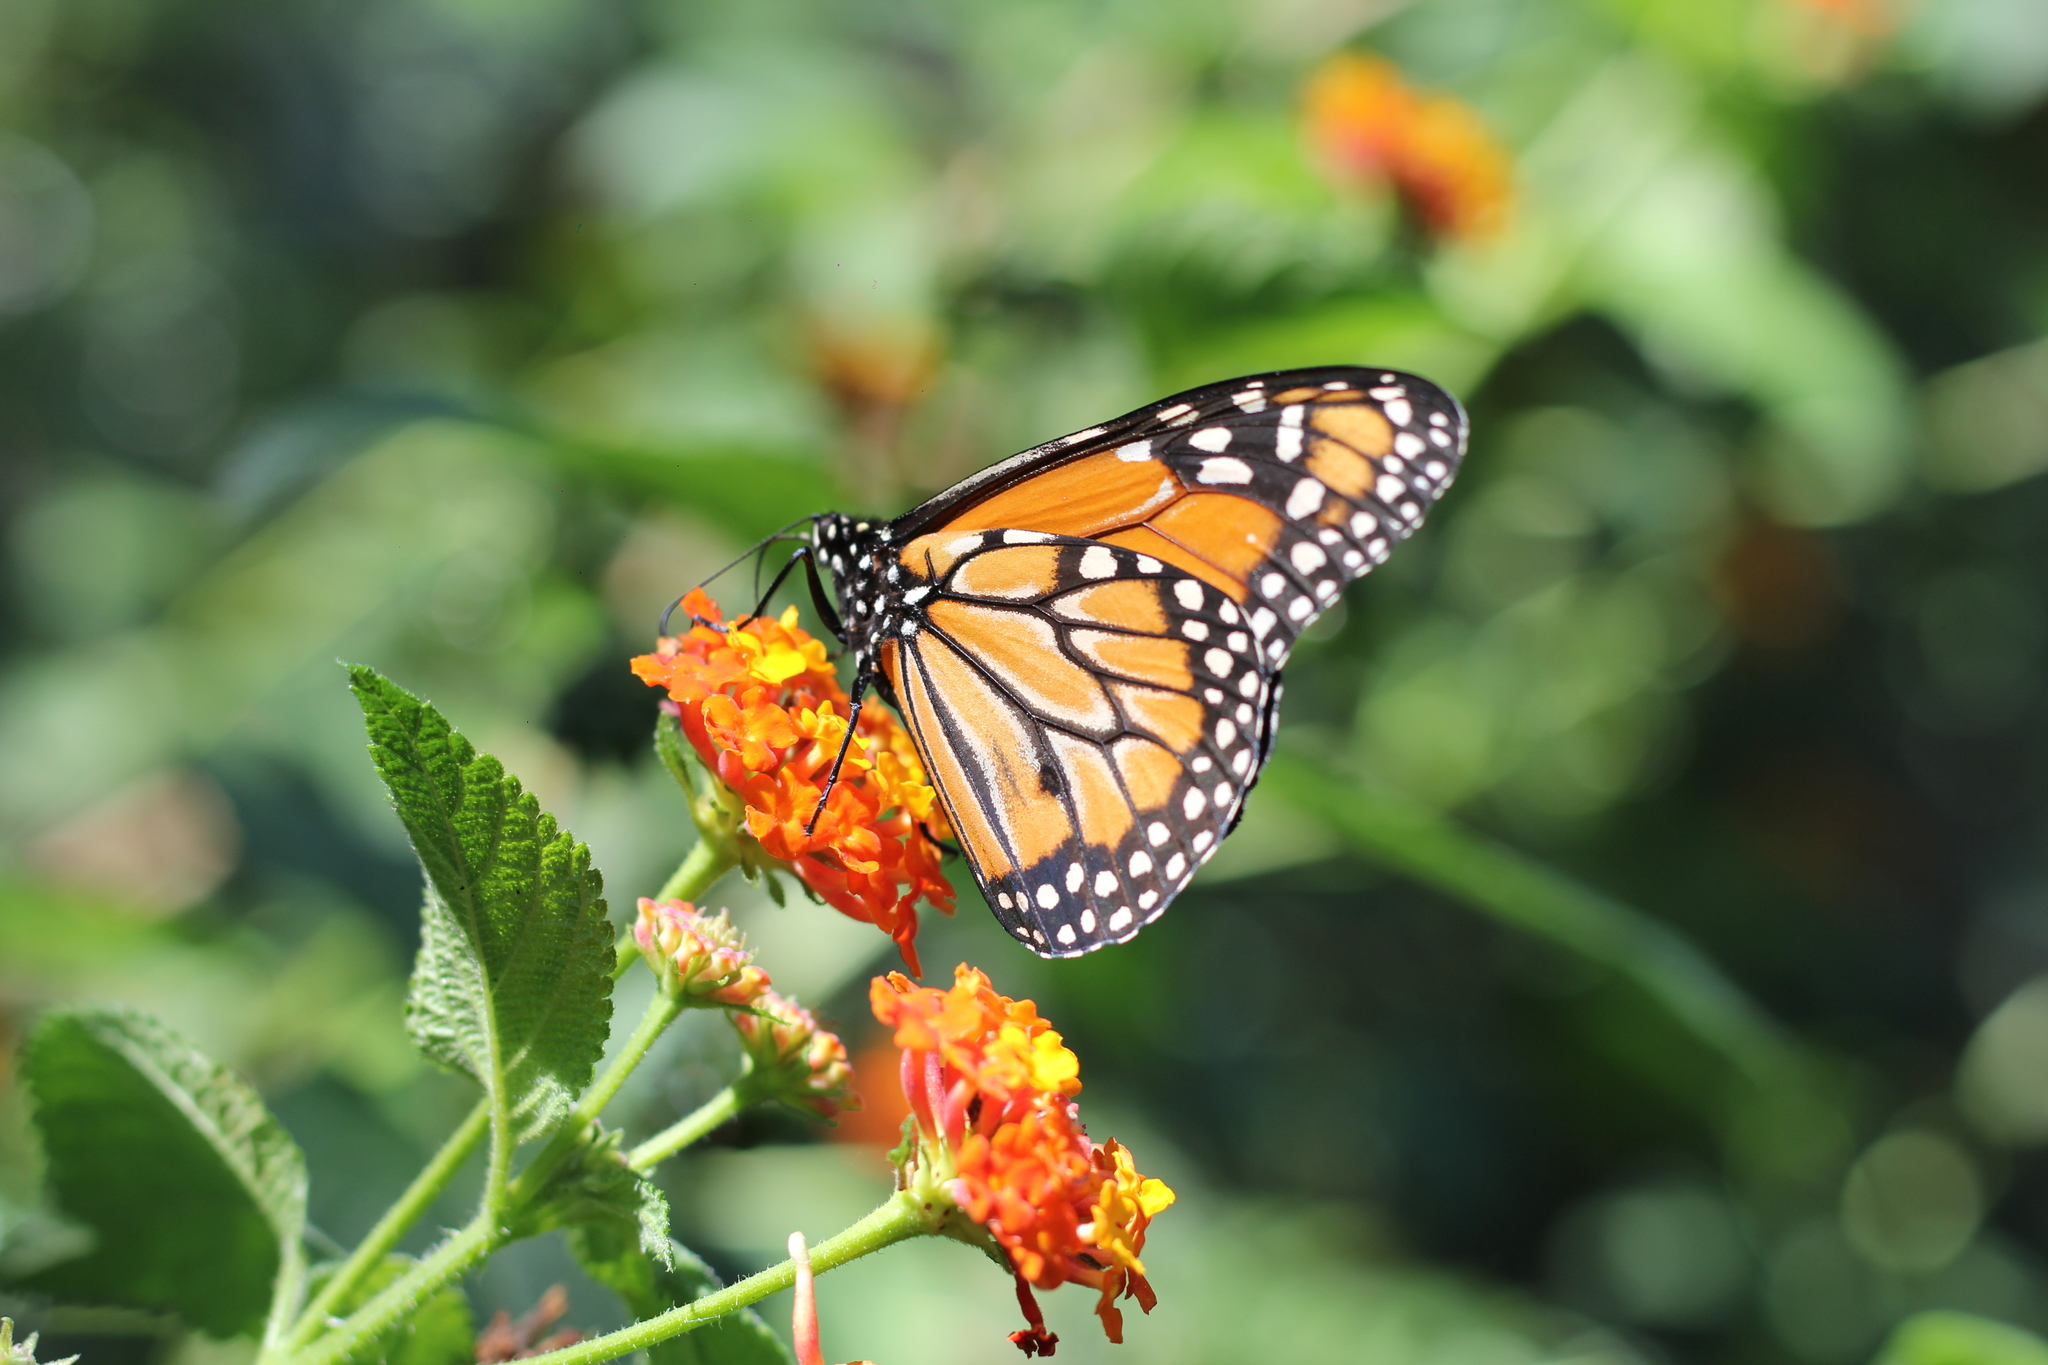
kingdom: Animalia
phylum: Arthropoda
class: Insecta
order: Lepidoptera
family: Nymphalidae
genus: Danaus
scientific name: Danaus erippus
